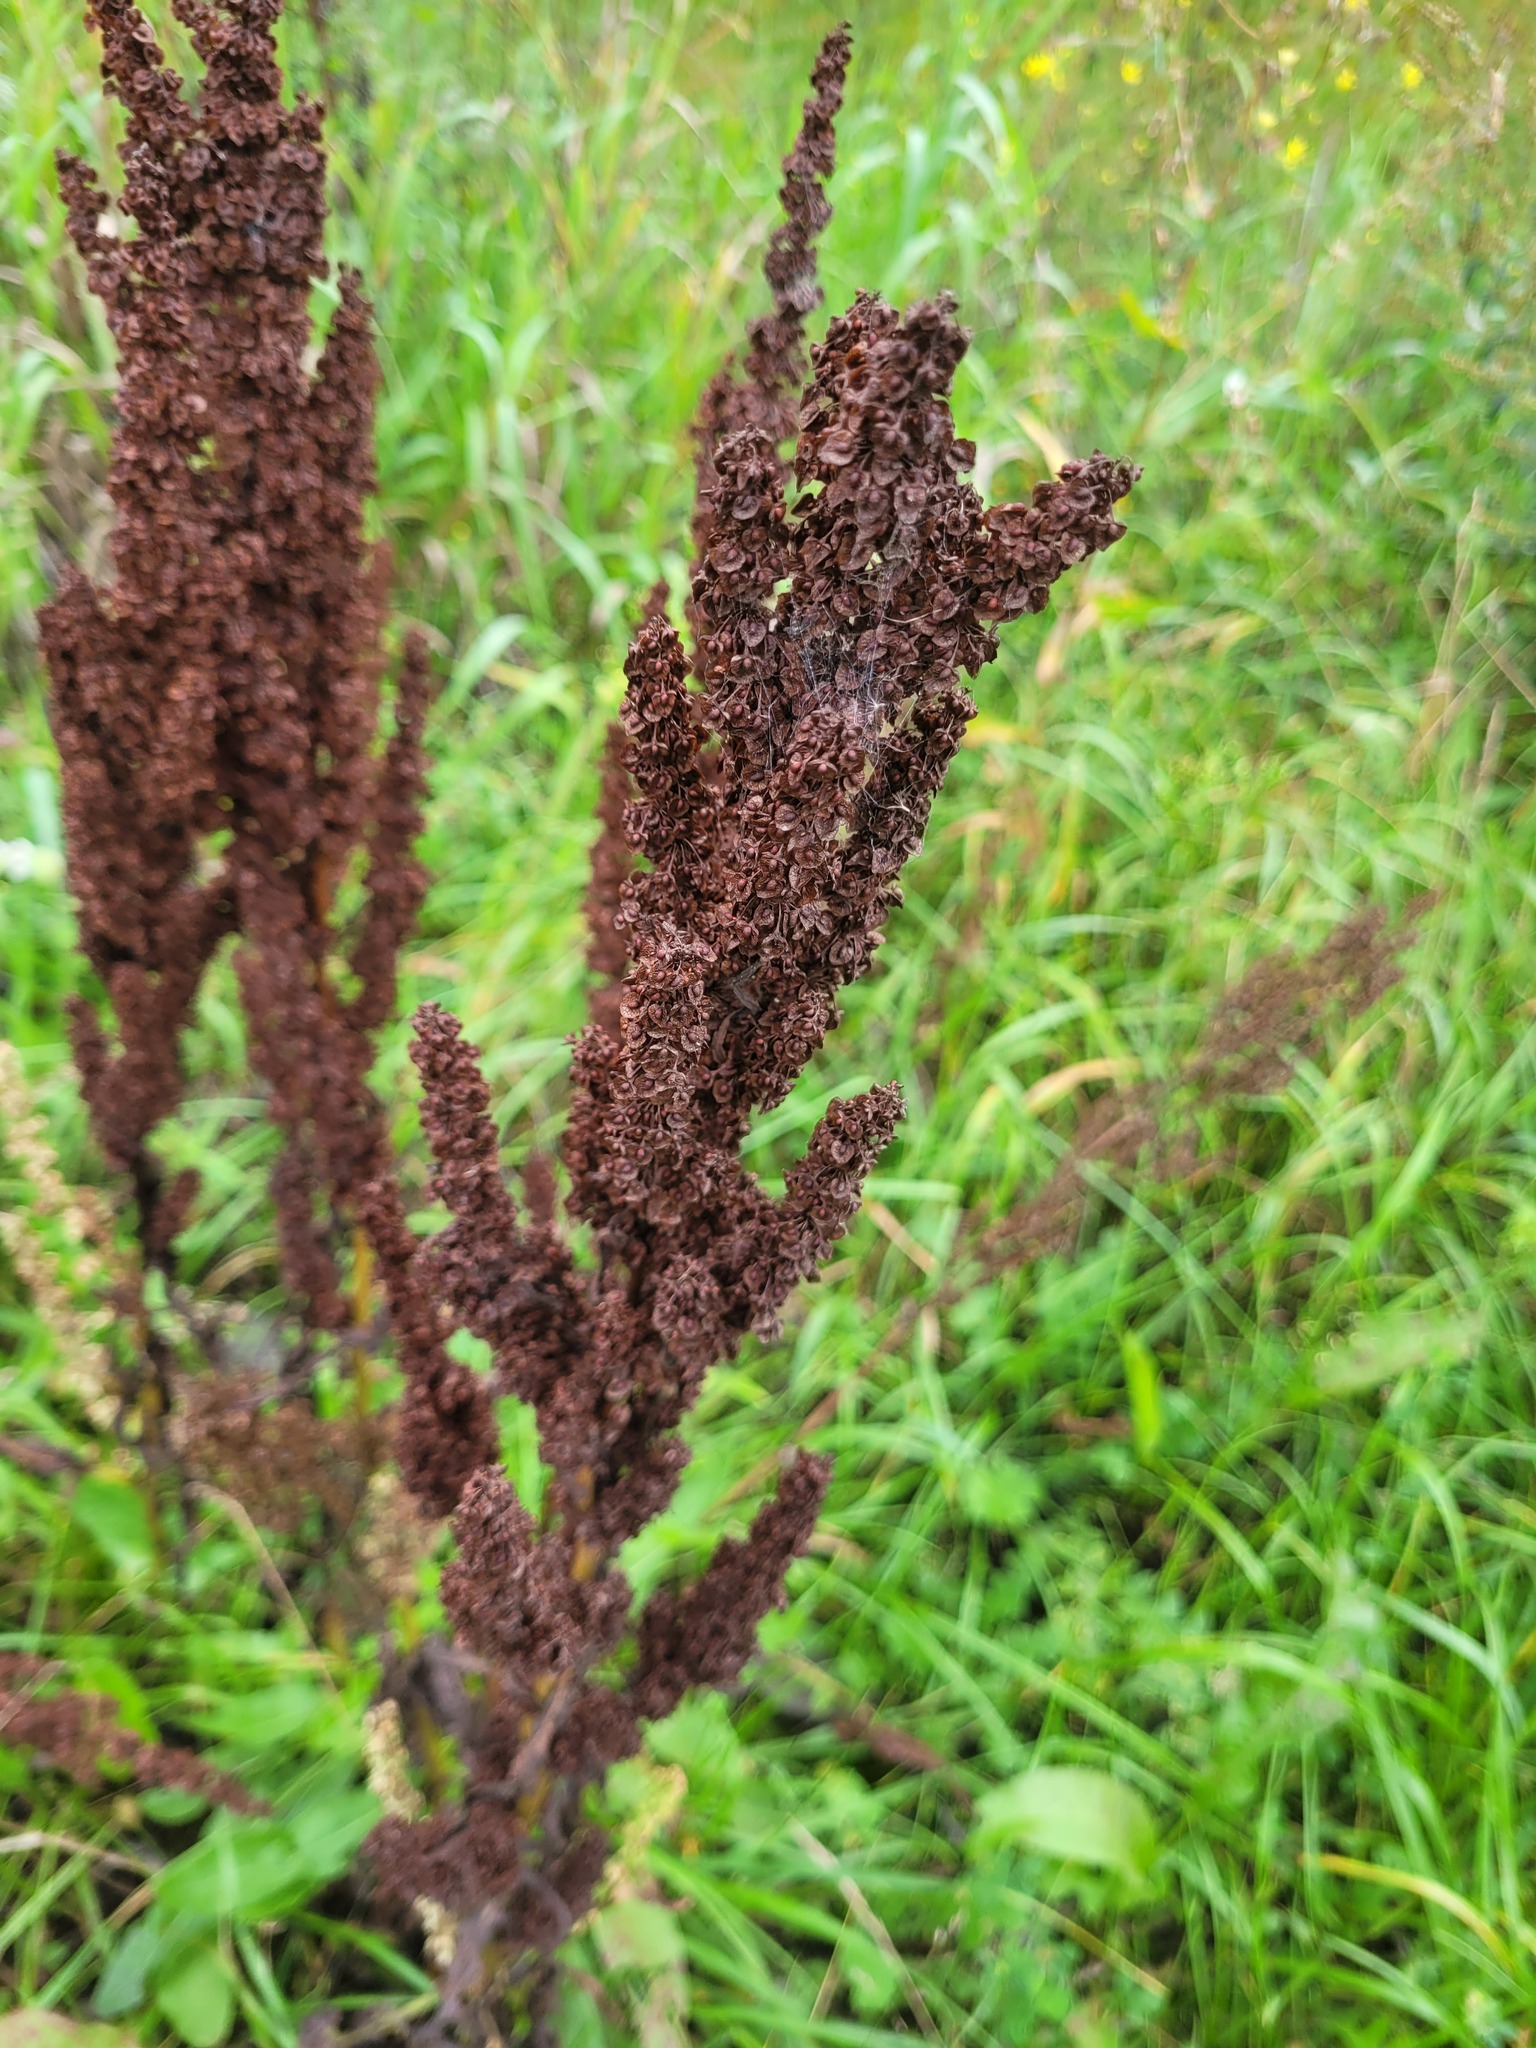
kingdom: Plantae
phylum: Tracheophyta
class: Magnoliopsida
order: Caryophyllales
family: Polygonaceae
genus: Rumex
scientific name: Rumex crispus
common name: Curled dock
